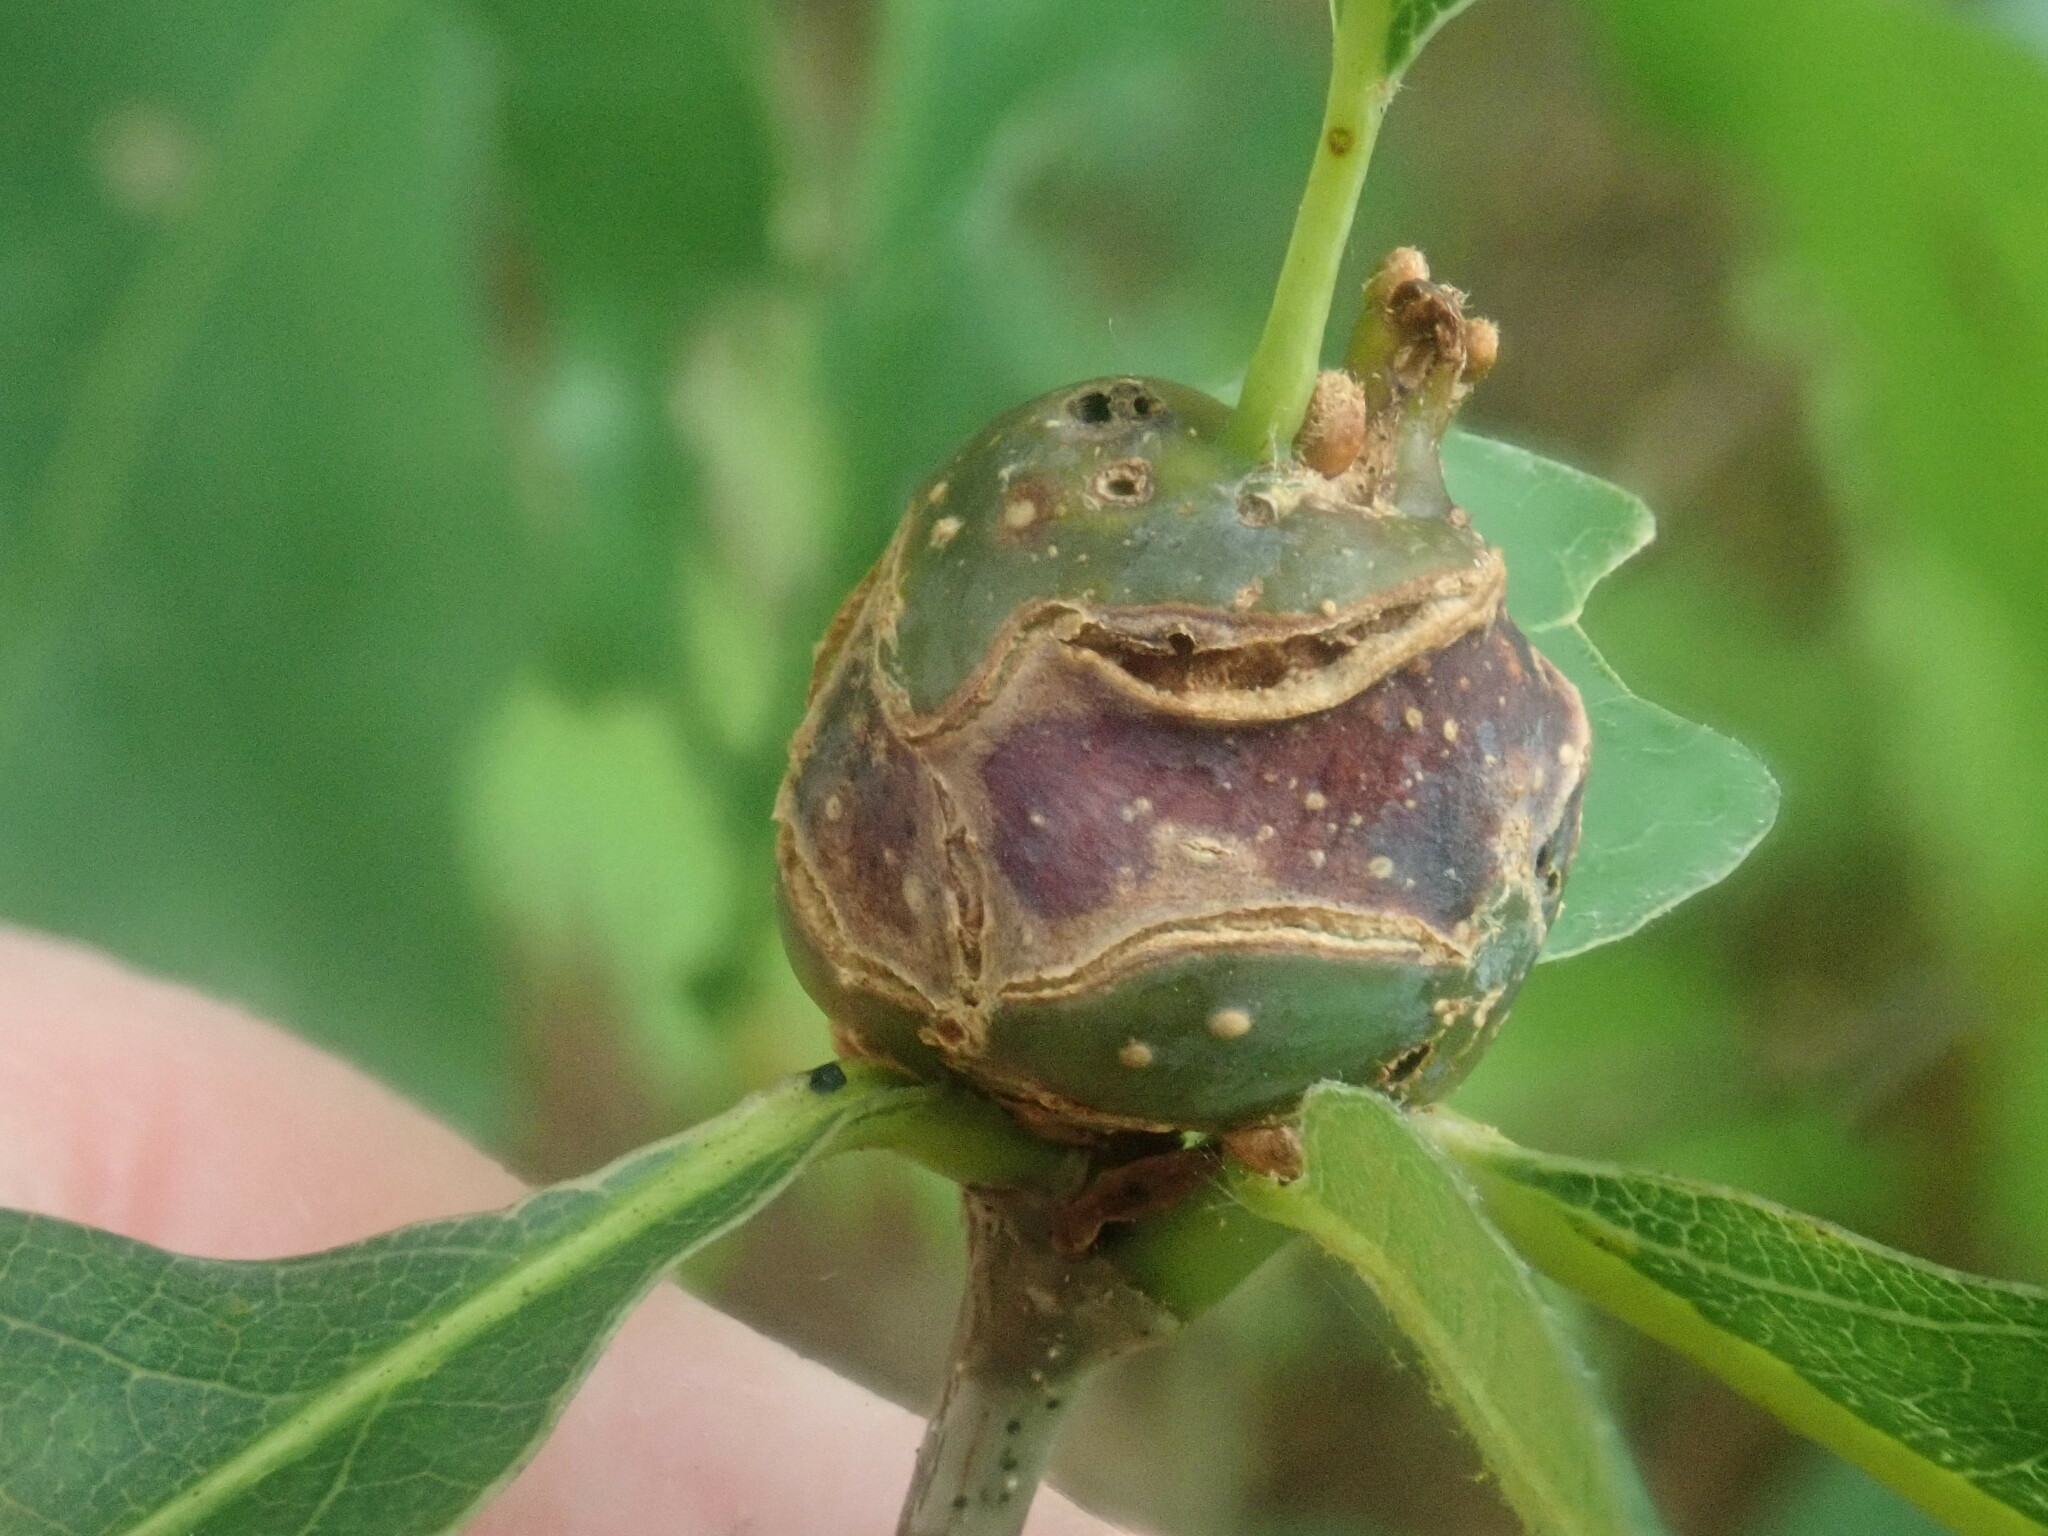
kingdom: Animalia
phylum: Arthropoda
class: Insecta
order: Hymenoptera
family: Cynipidae
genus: Callirhytis
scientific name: Callirhytis clavula
